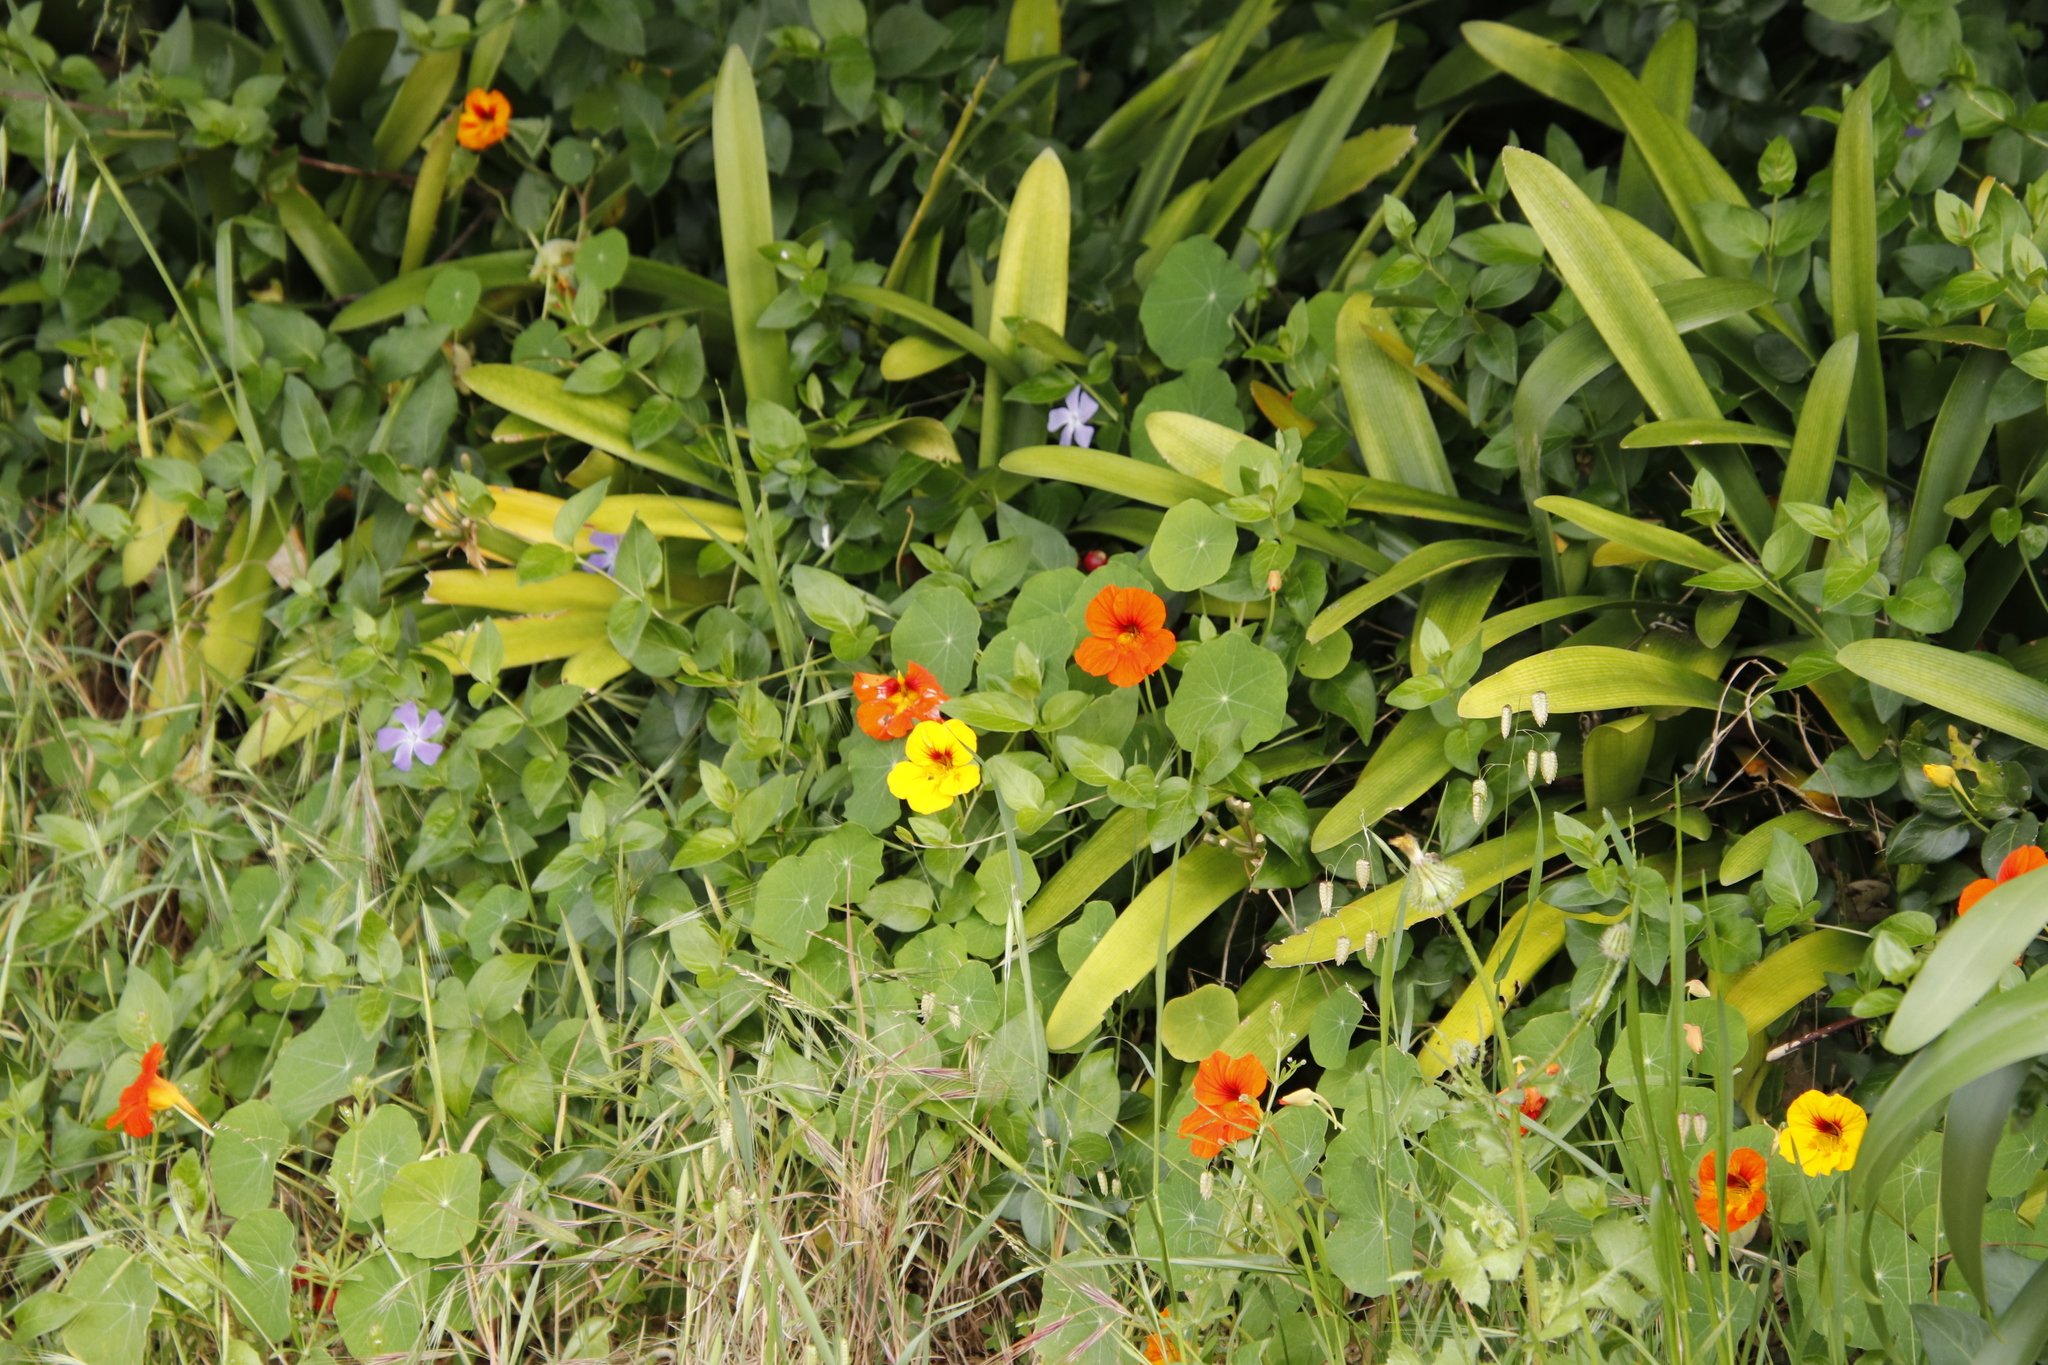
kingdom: Plantae
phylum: Tracheophyta
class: Magnoliopsida
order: Brassicales
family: Tropaeolaceae
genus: Tropaeolum
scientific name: Tropaeolum majus
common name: Nasturtium
